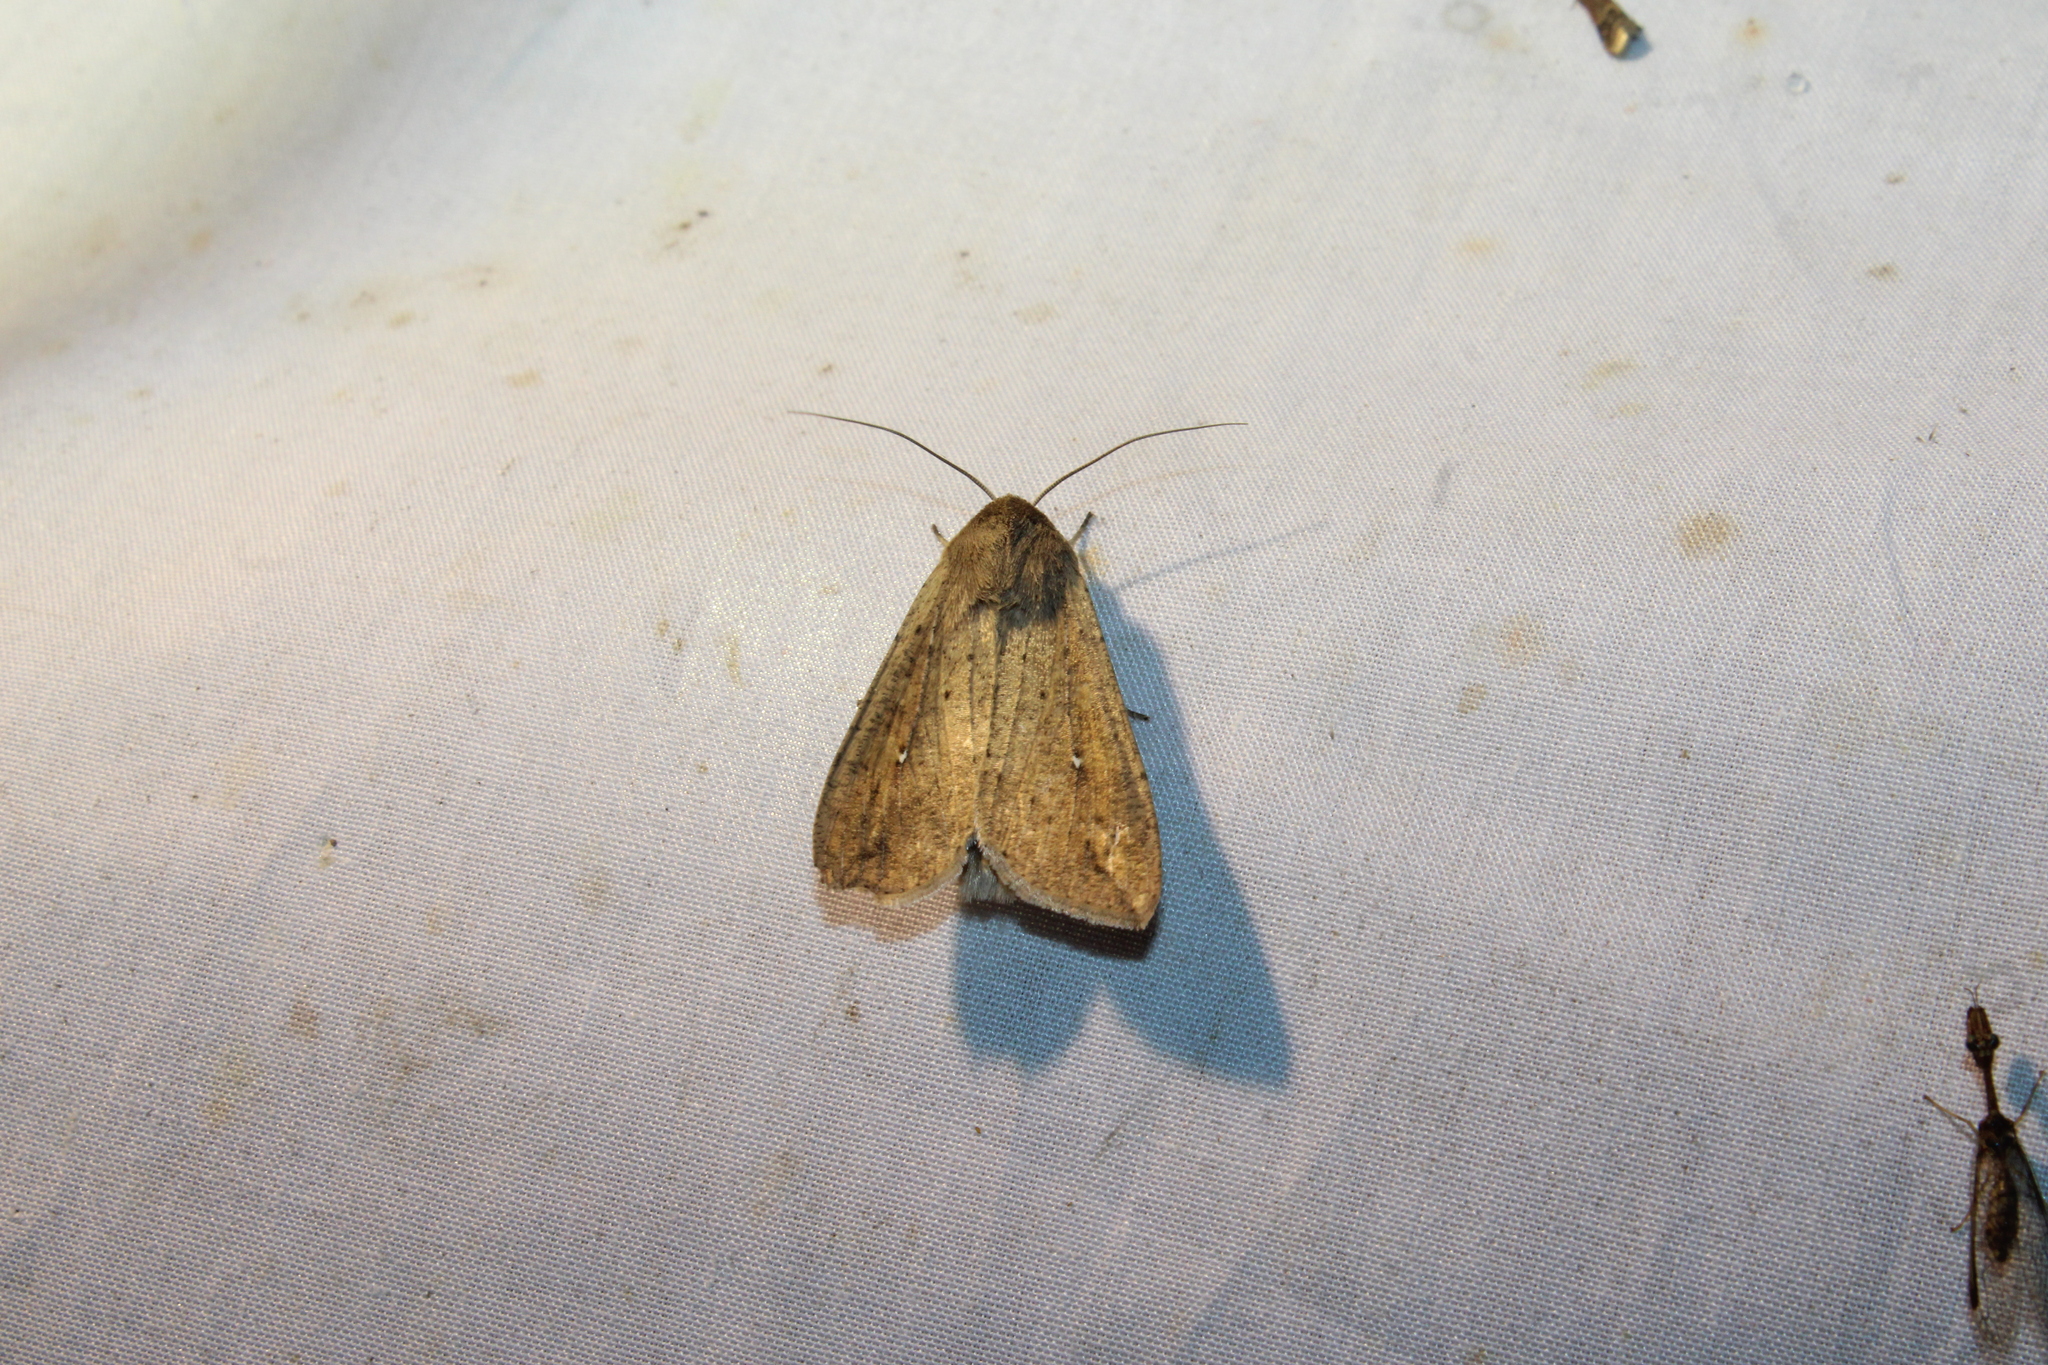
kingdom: Animalia
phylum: Arthropoda
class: Insecta
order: Lepidoptera
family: Noctuidae
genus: Mythimna
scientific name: Mythimna unipuncta
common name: White-speck
